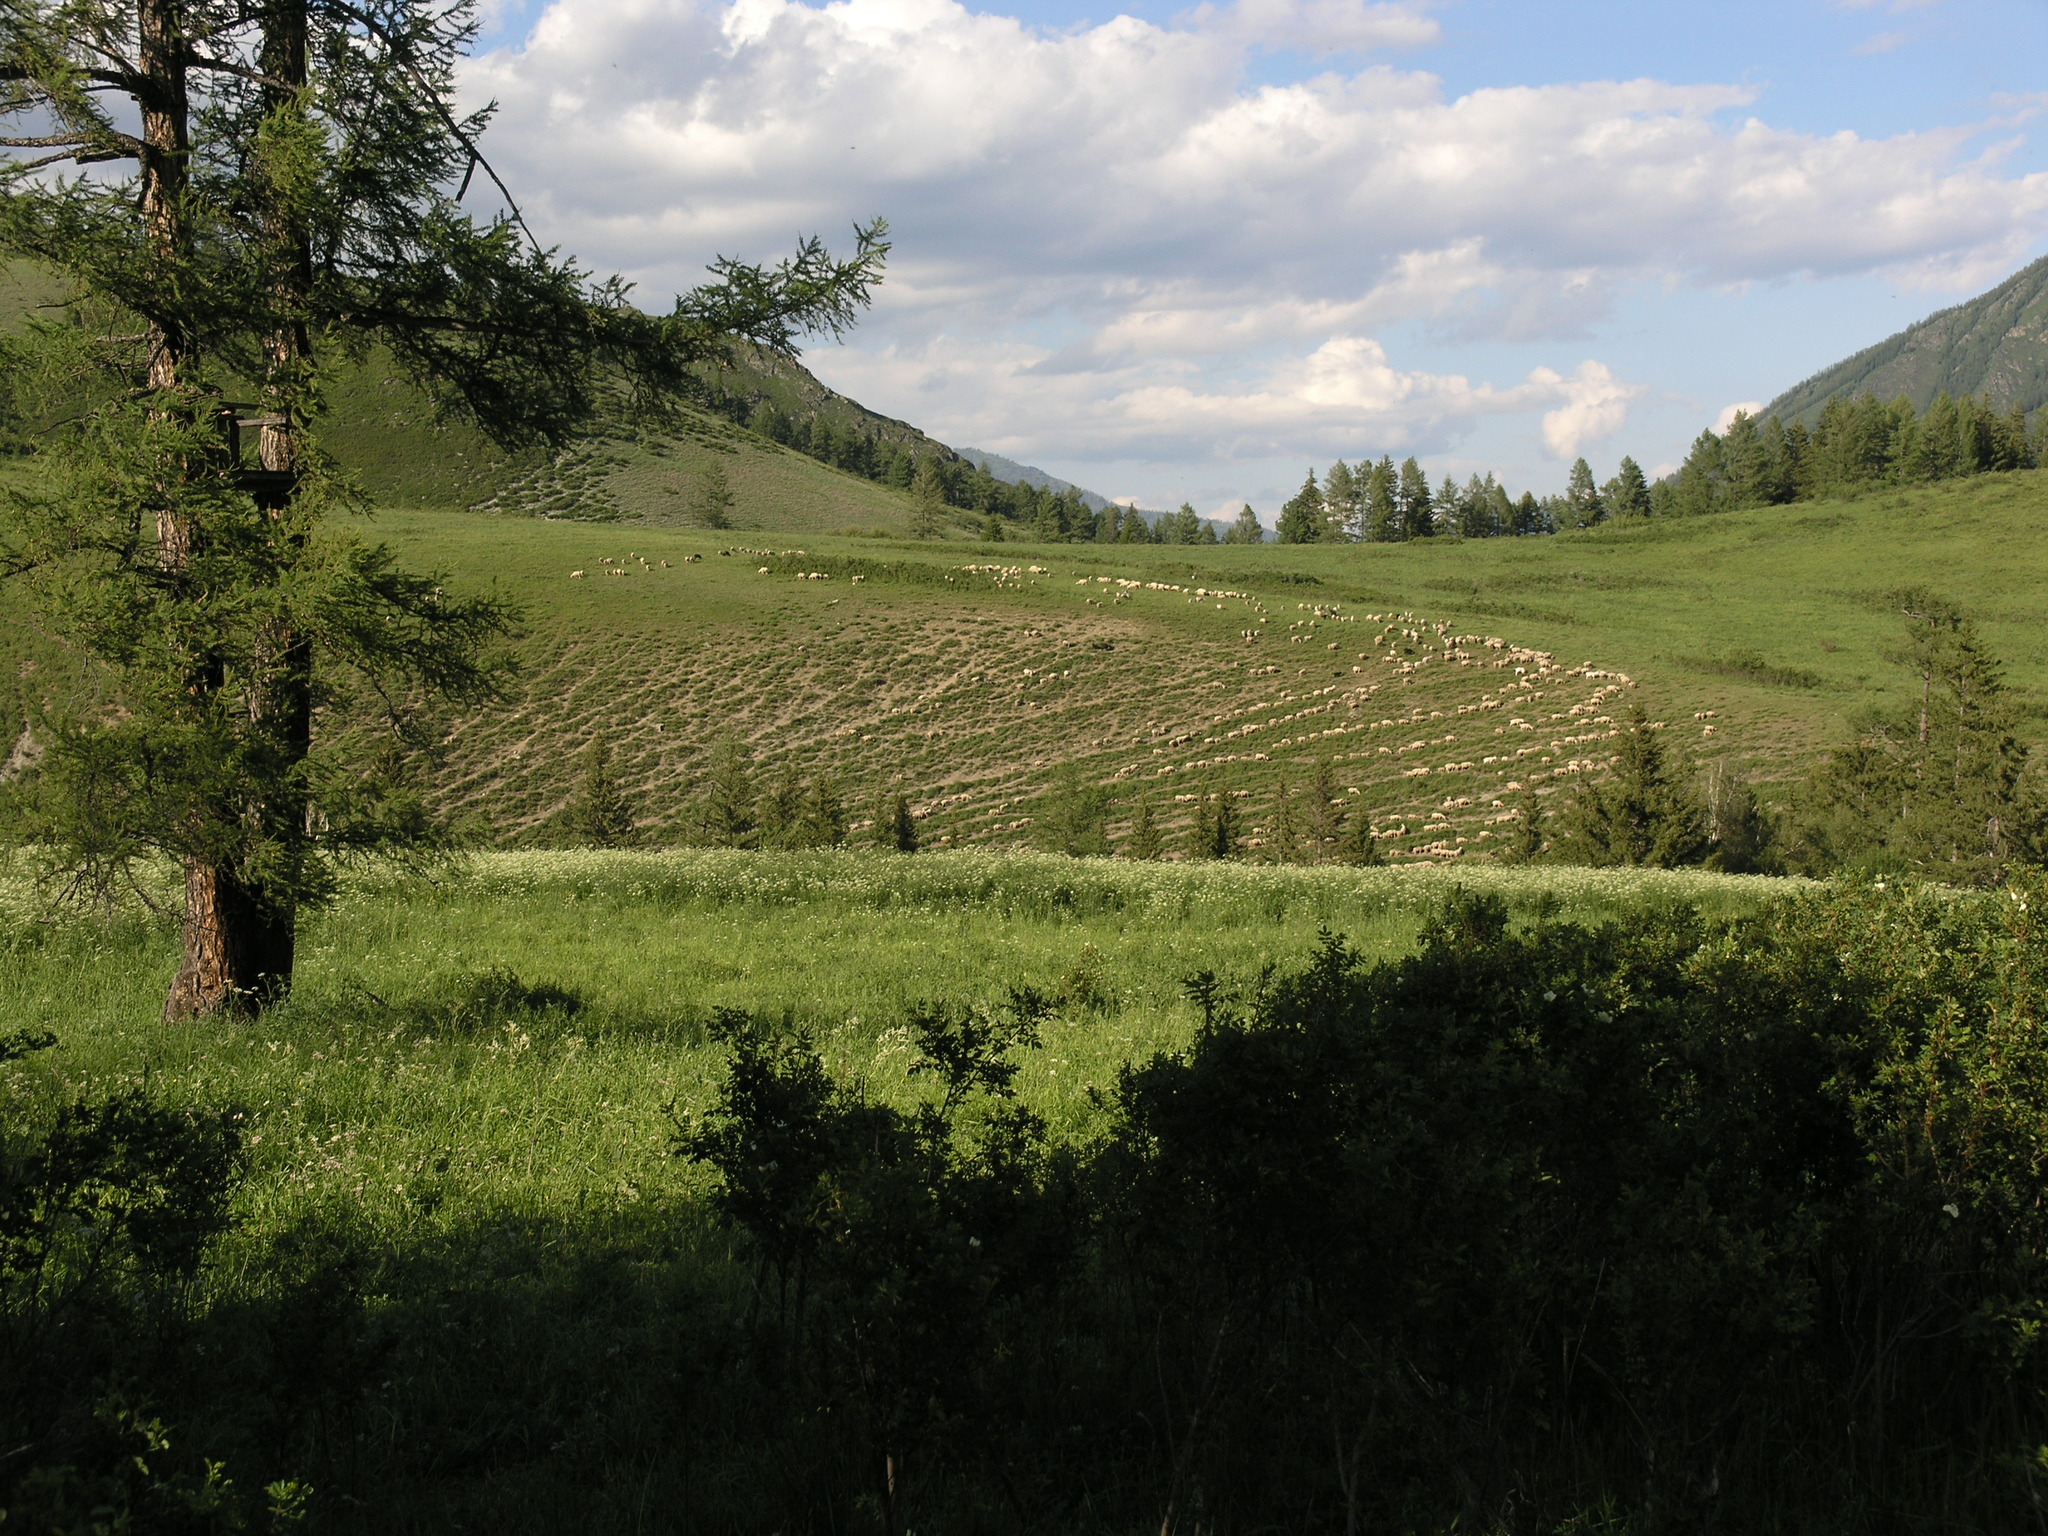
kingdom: Plantae
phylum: Tracheophyta
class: Pinopsida
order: Pinales
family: Pinaceae
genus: Larix
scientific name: Larix sibirica
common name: Siberian larch
